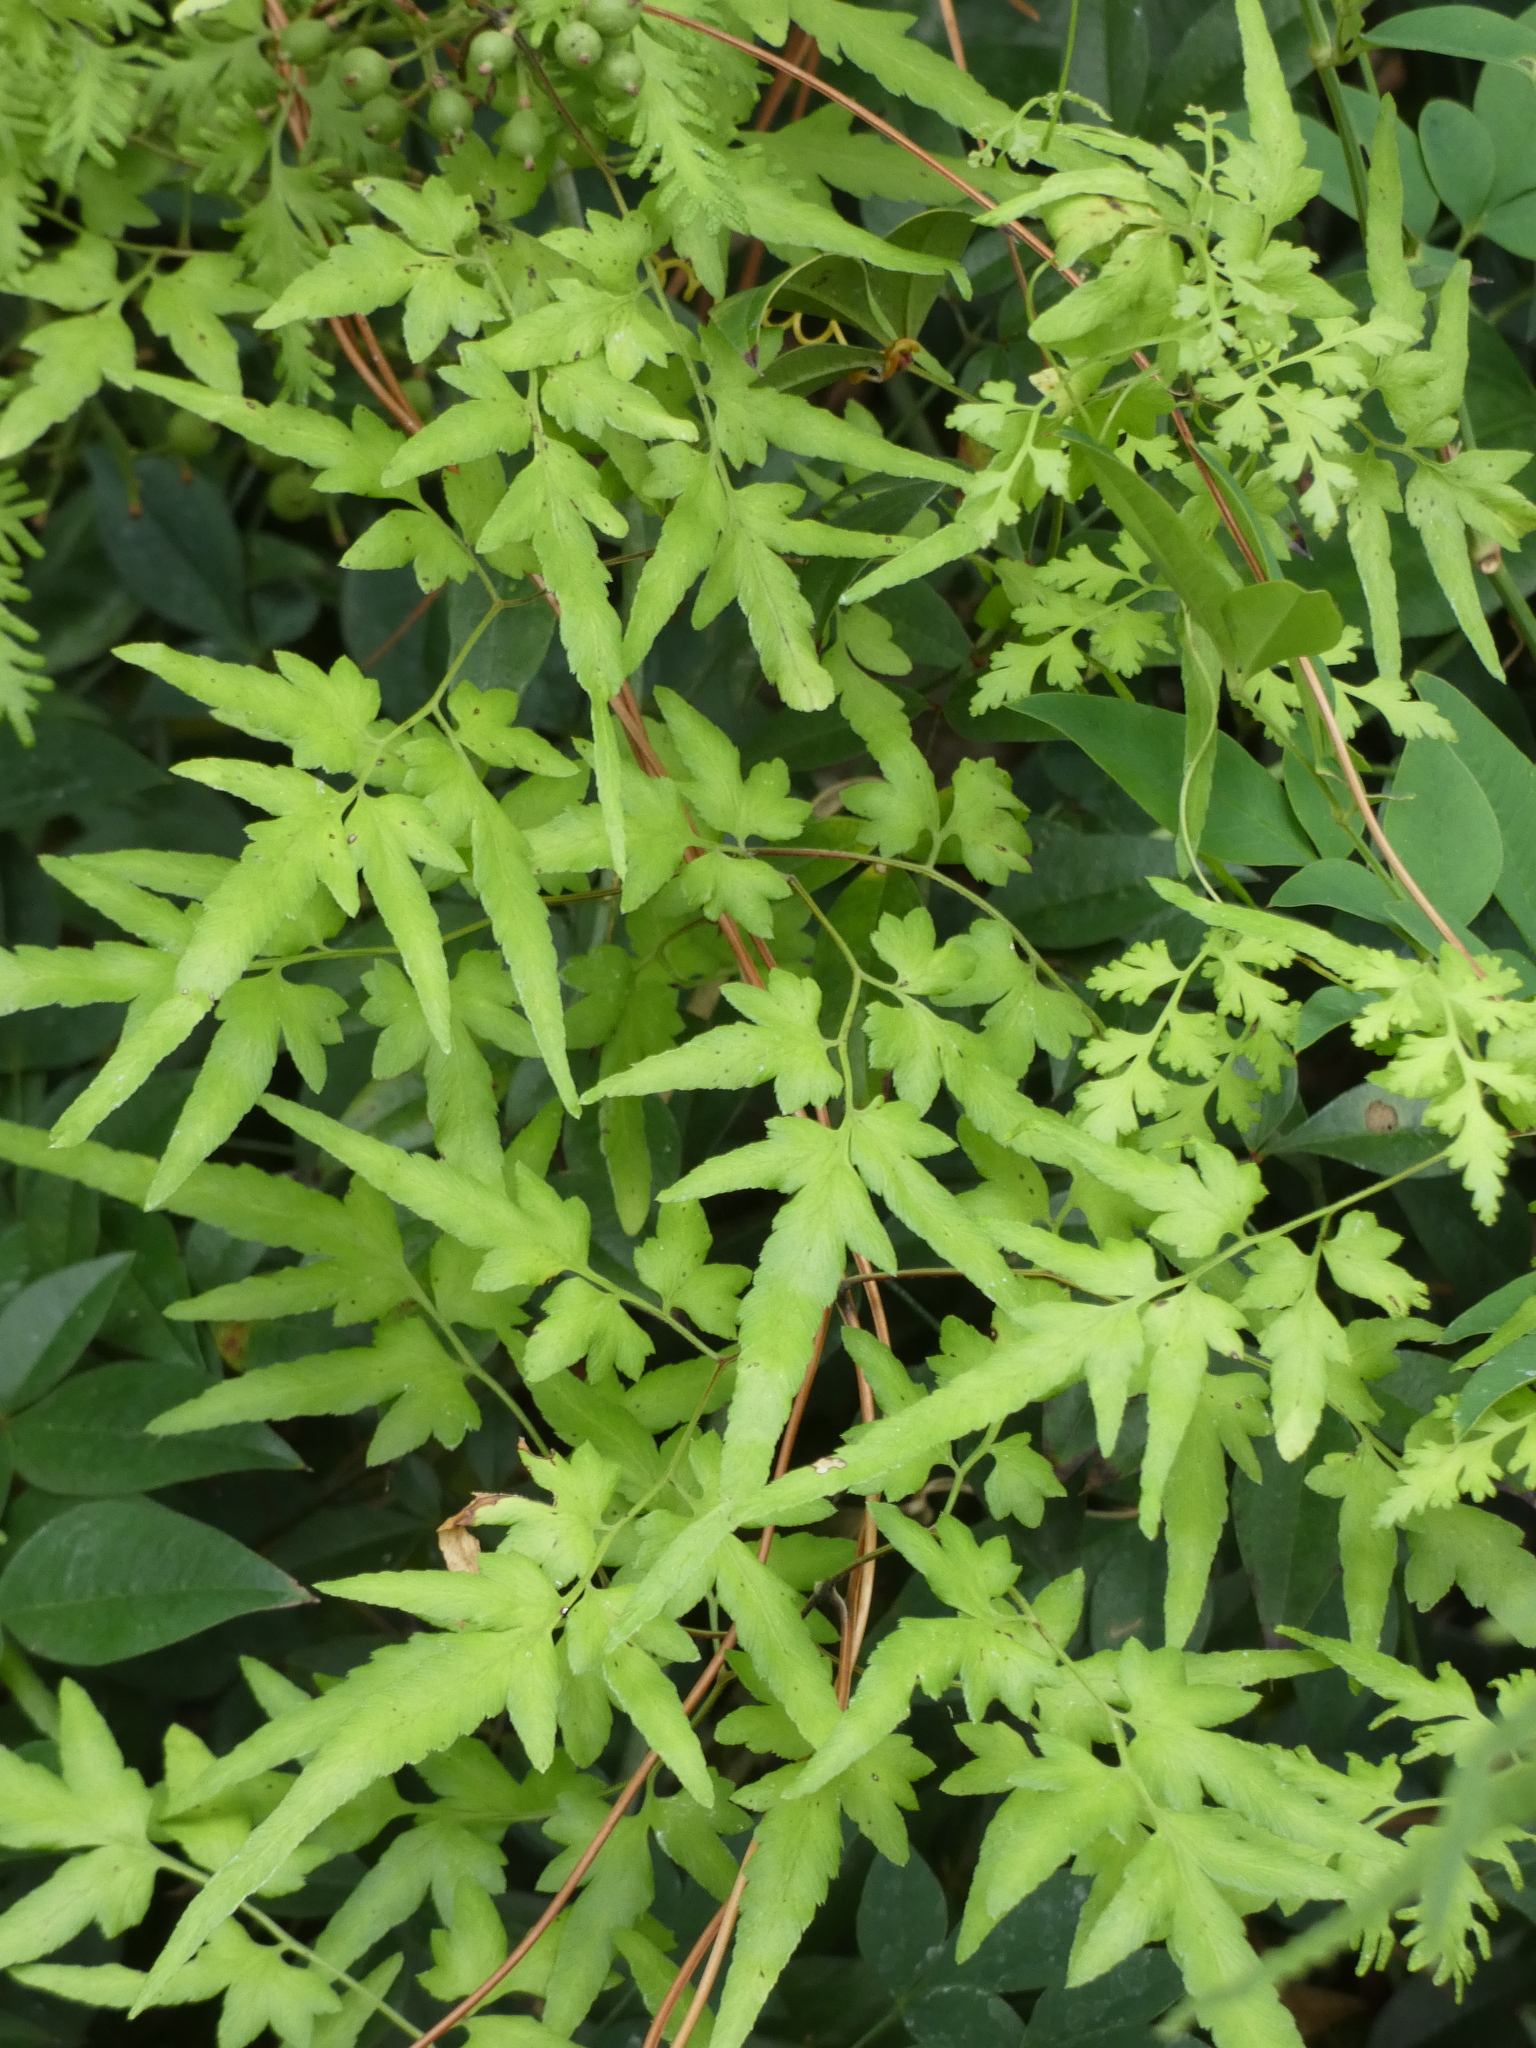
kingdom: Plantae
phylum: Tracheophyta
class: Polypodiopsida
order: Schizaeales
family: Lygodiaceae
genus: Lygodium
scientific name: Lygodium japonicum
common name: Japanese climbing fern
